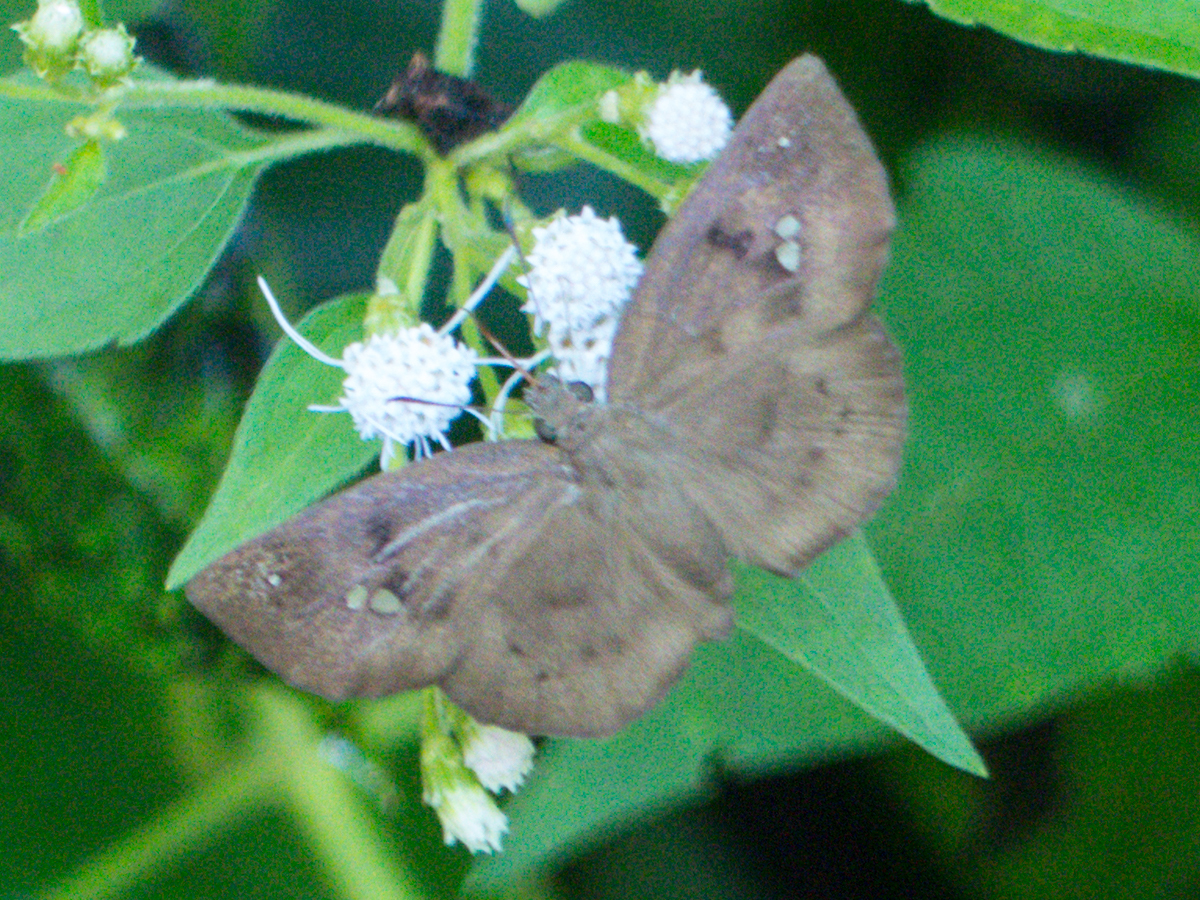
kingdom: Animalia
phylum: Arthropoda
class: Insecta
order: Lepidoptera
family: Hesperiidae
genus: Tagiades
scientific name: Tagiades japetus
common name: Pied flat
